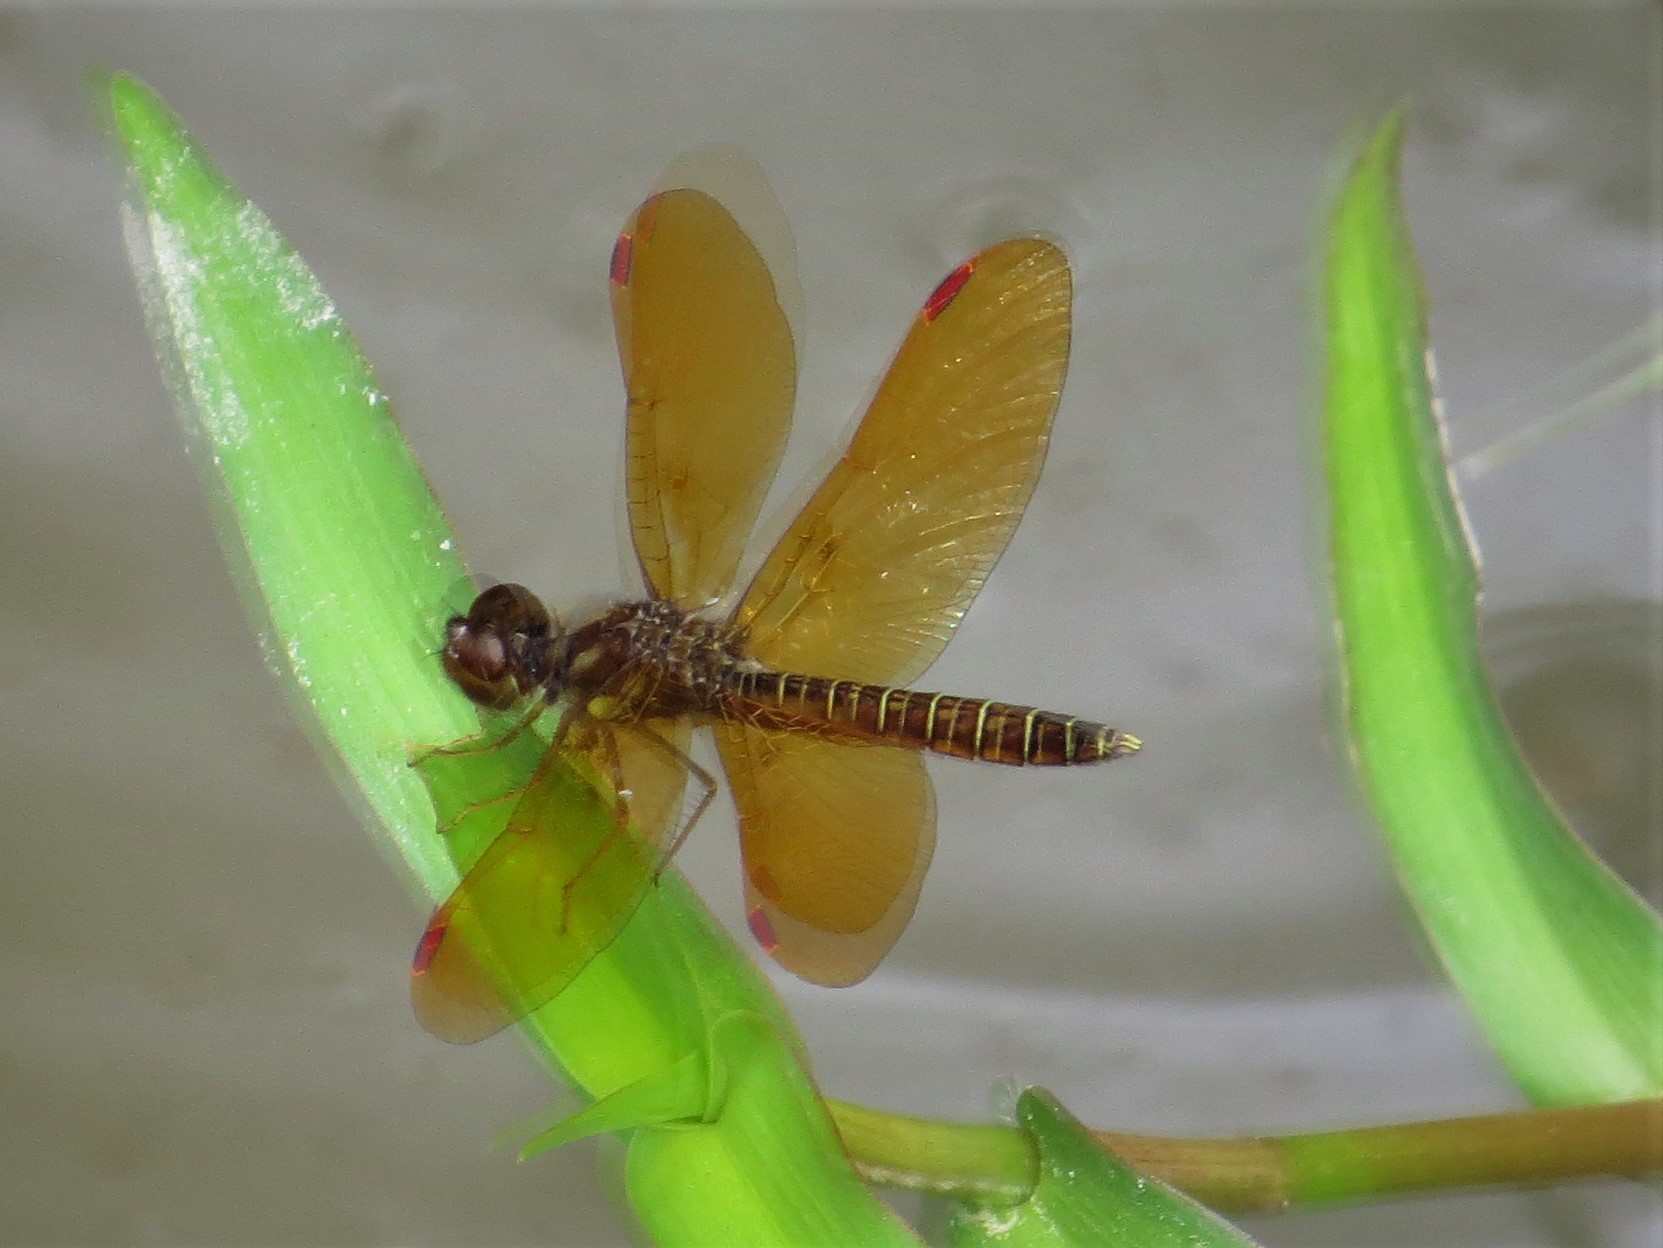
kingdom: Animalia
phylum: Arthropoda
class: Insecta
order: Odonata
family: Libellulidae
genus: Perithemis
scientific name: Perithemis tenera
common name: Eastern amberwing
